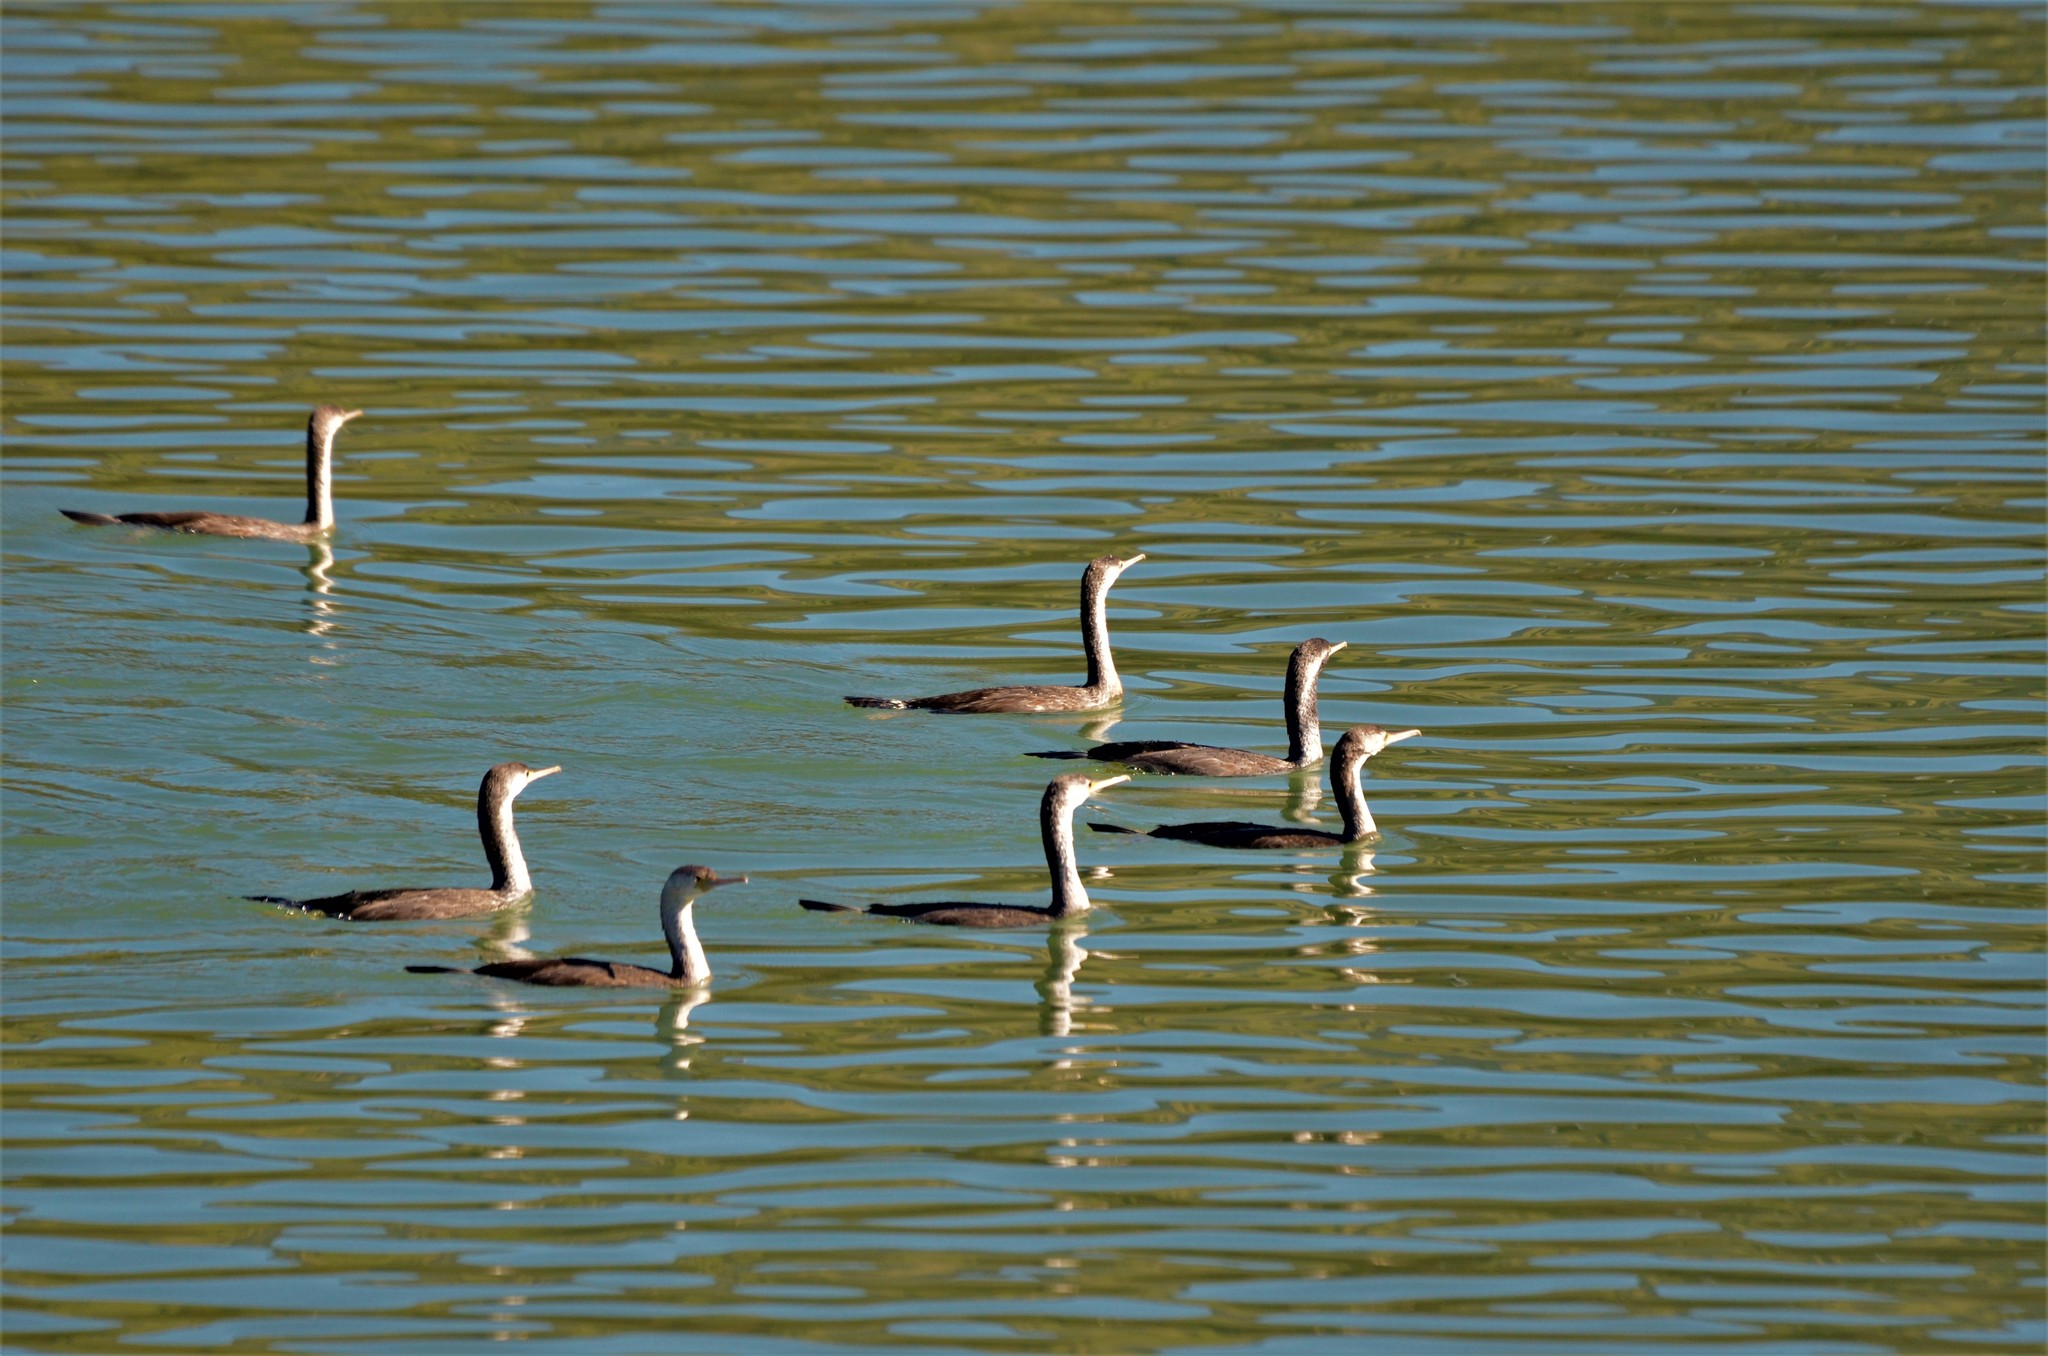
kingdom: Animalia
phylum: Chordata
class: Aves
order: Suliformes
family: Phalacrocoracidae
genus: Phalacrocorax
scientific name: Phalacrocorax punctatus
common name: Spotted shag
